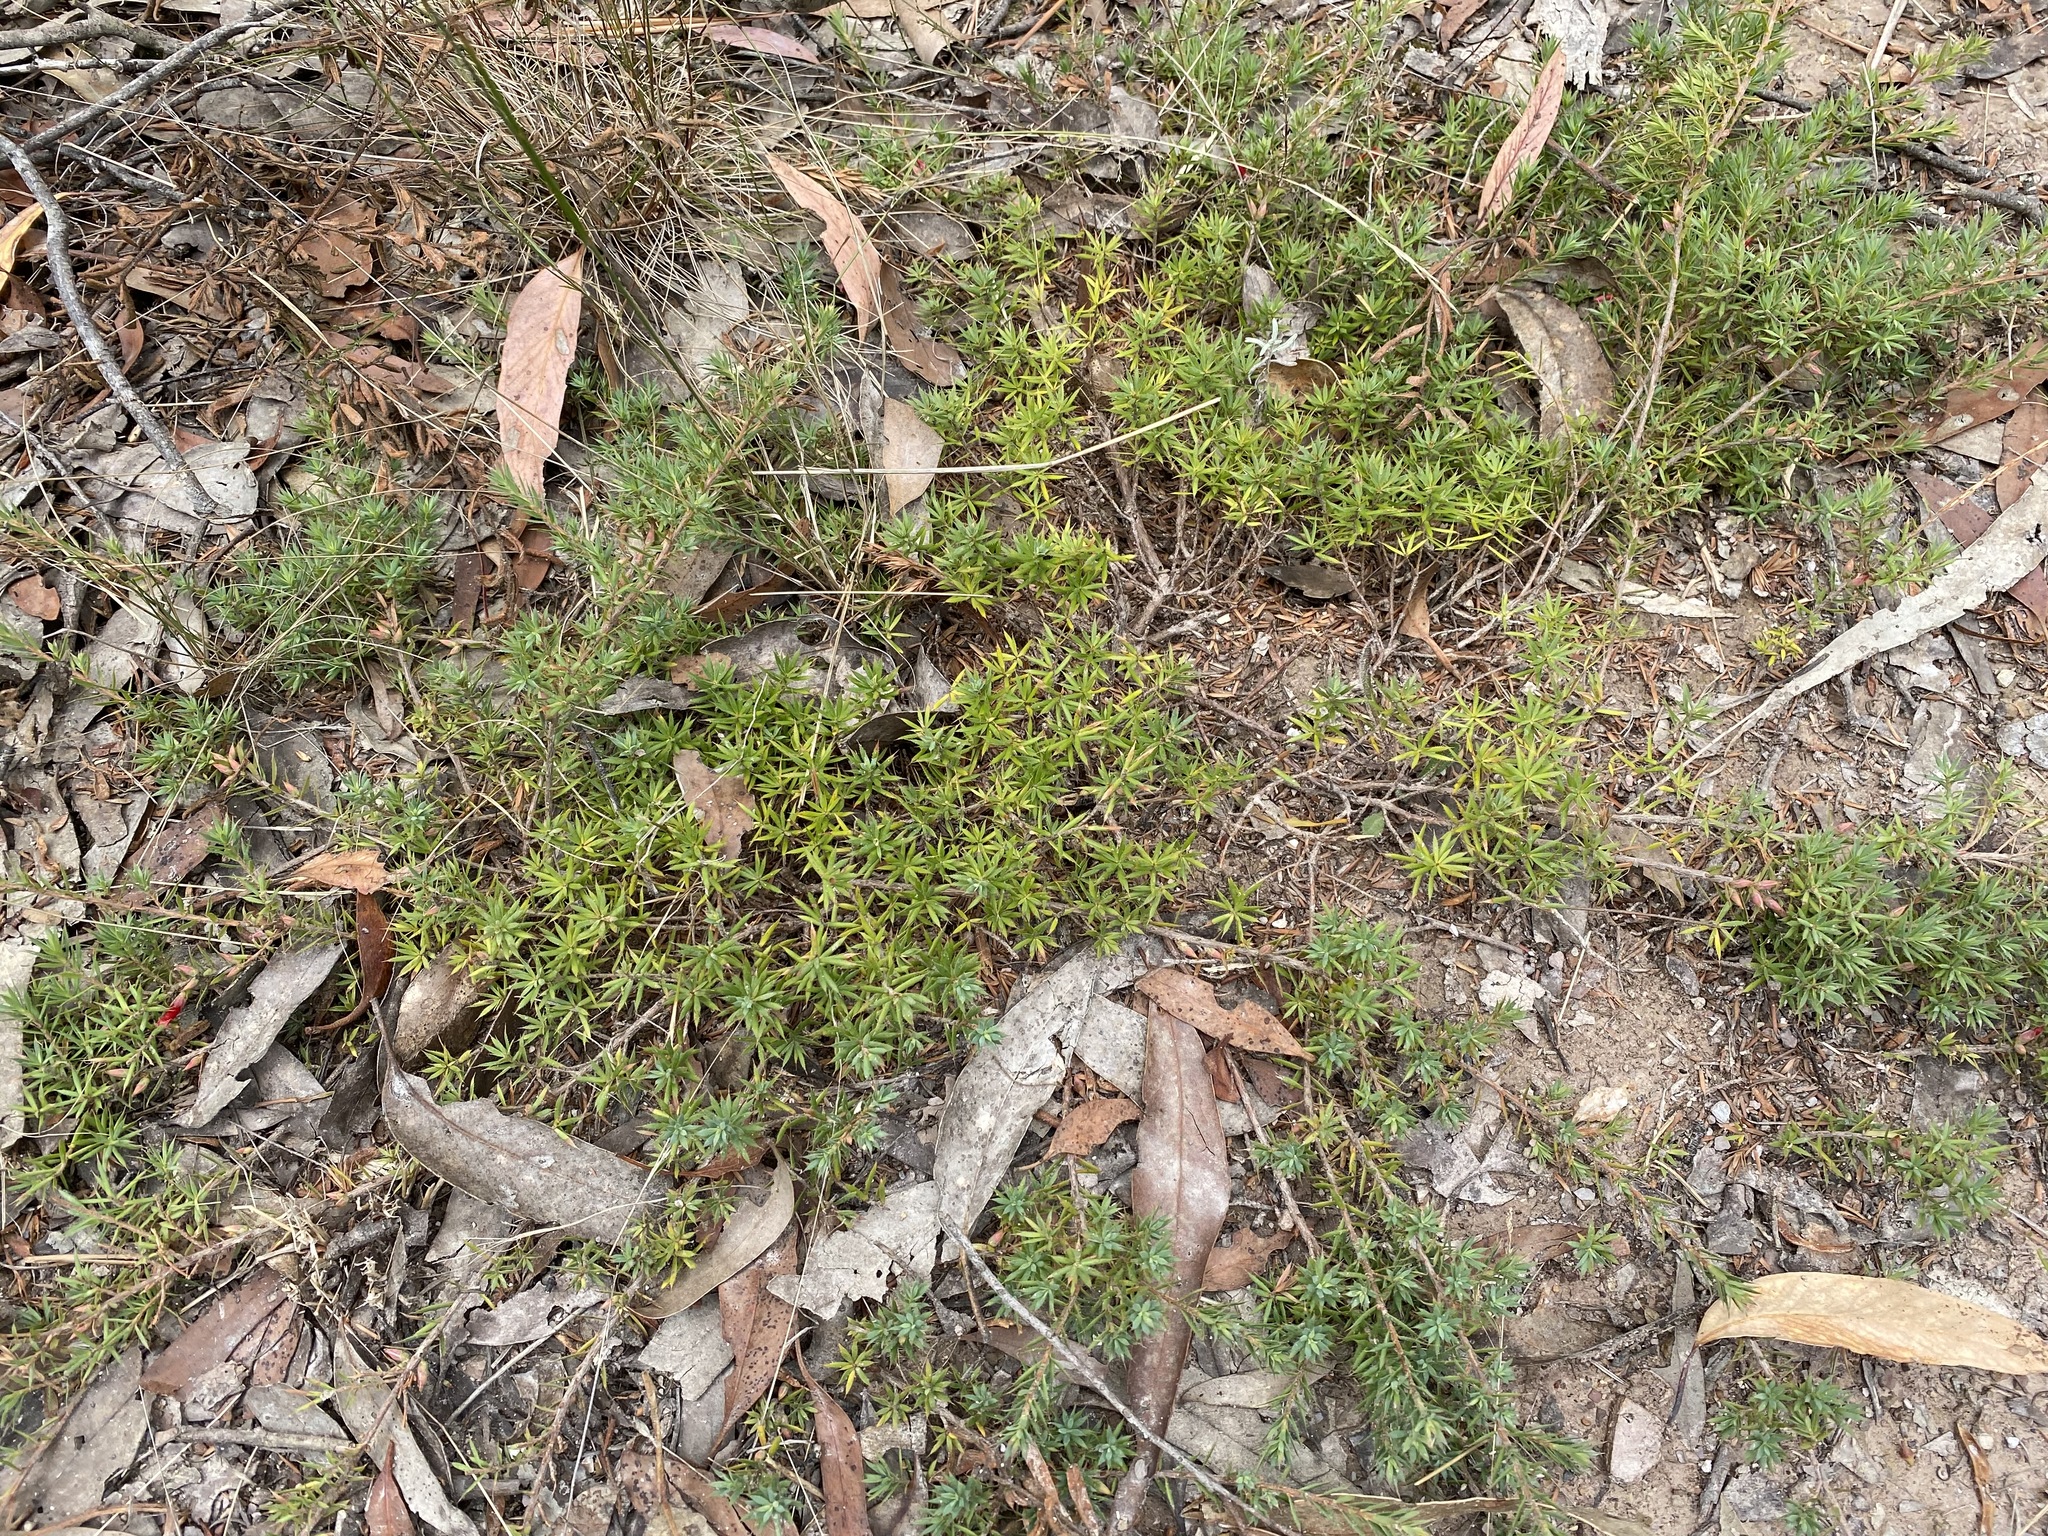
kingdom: Plantae
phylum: Tracheophyta
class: Magnoliopsida
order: Ericales
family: Ericaceae
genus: Styphelia
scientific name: Styphelia humifusa
